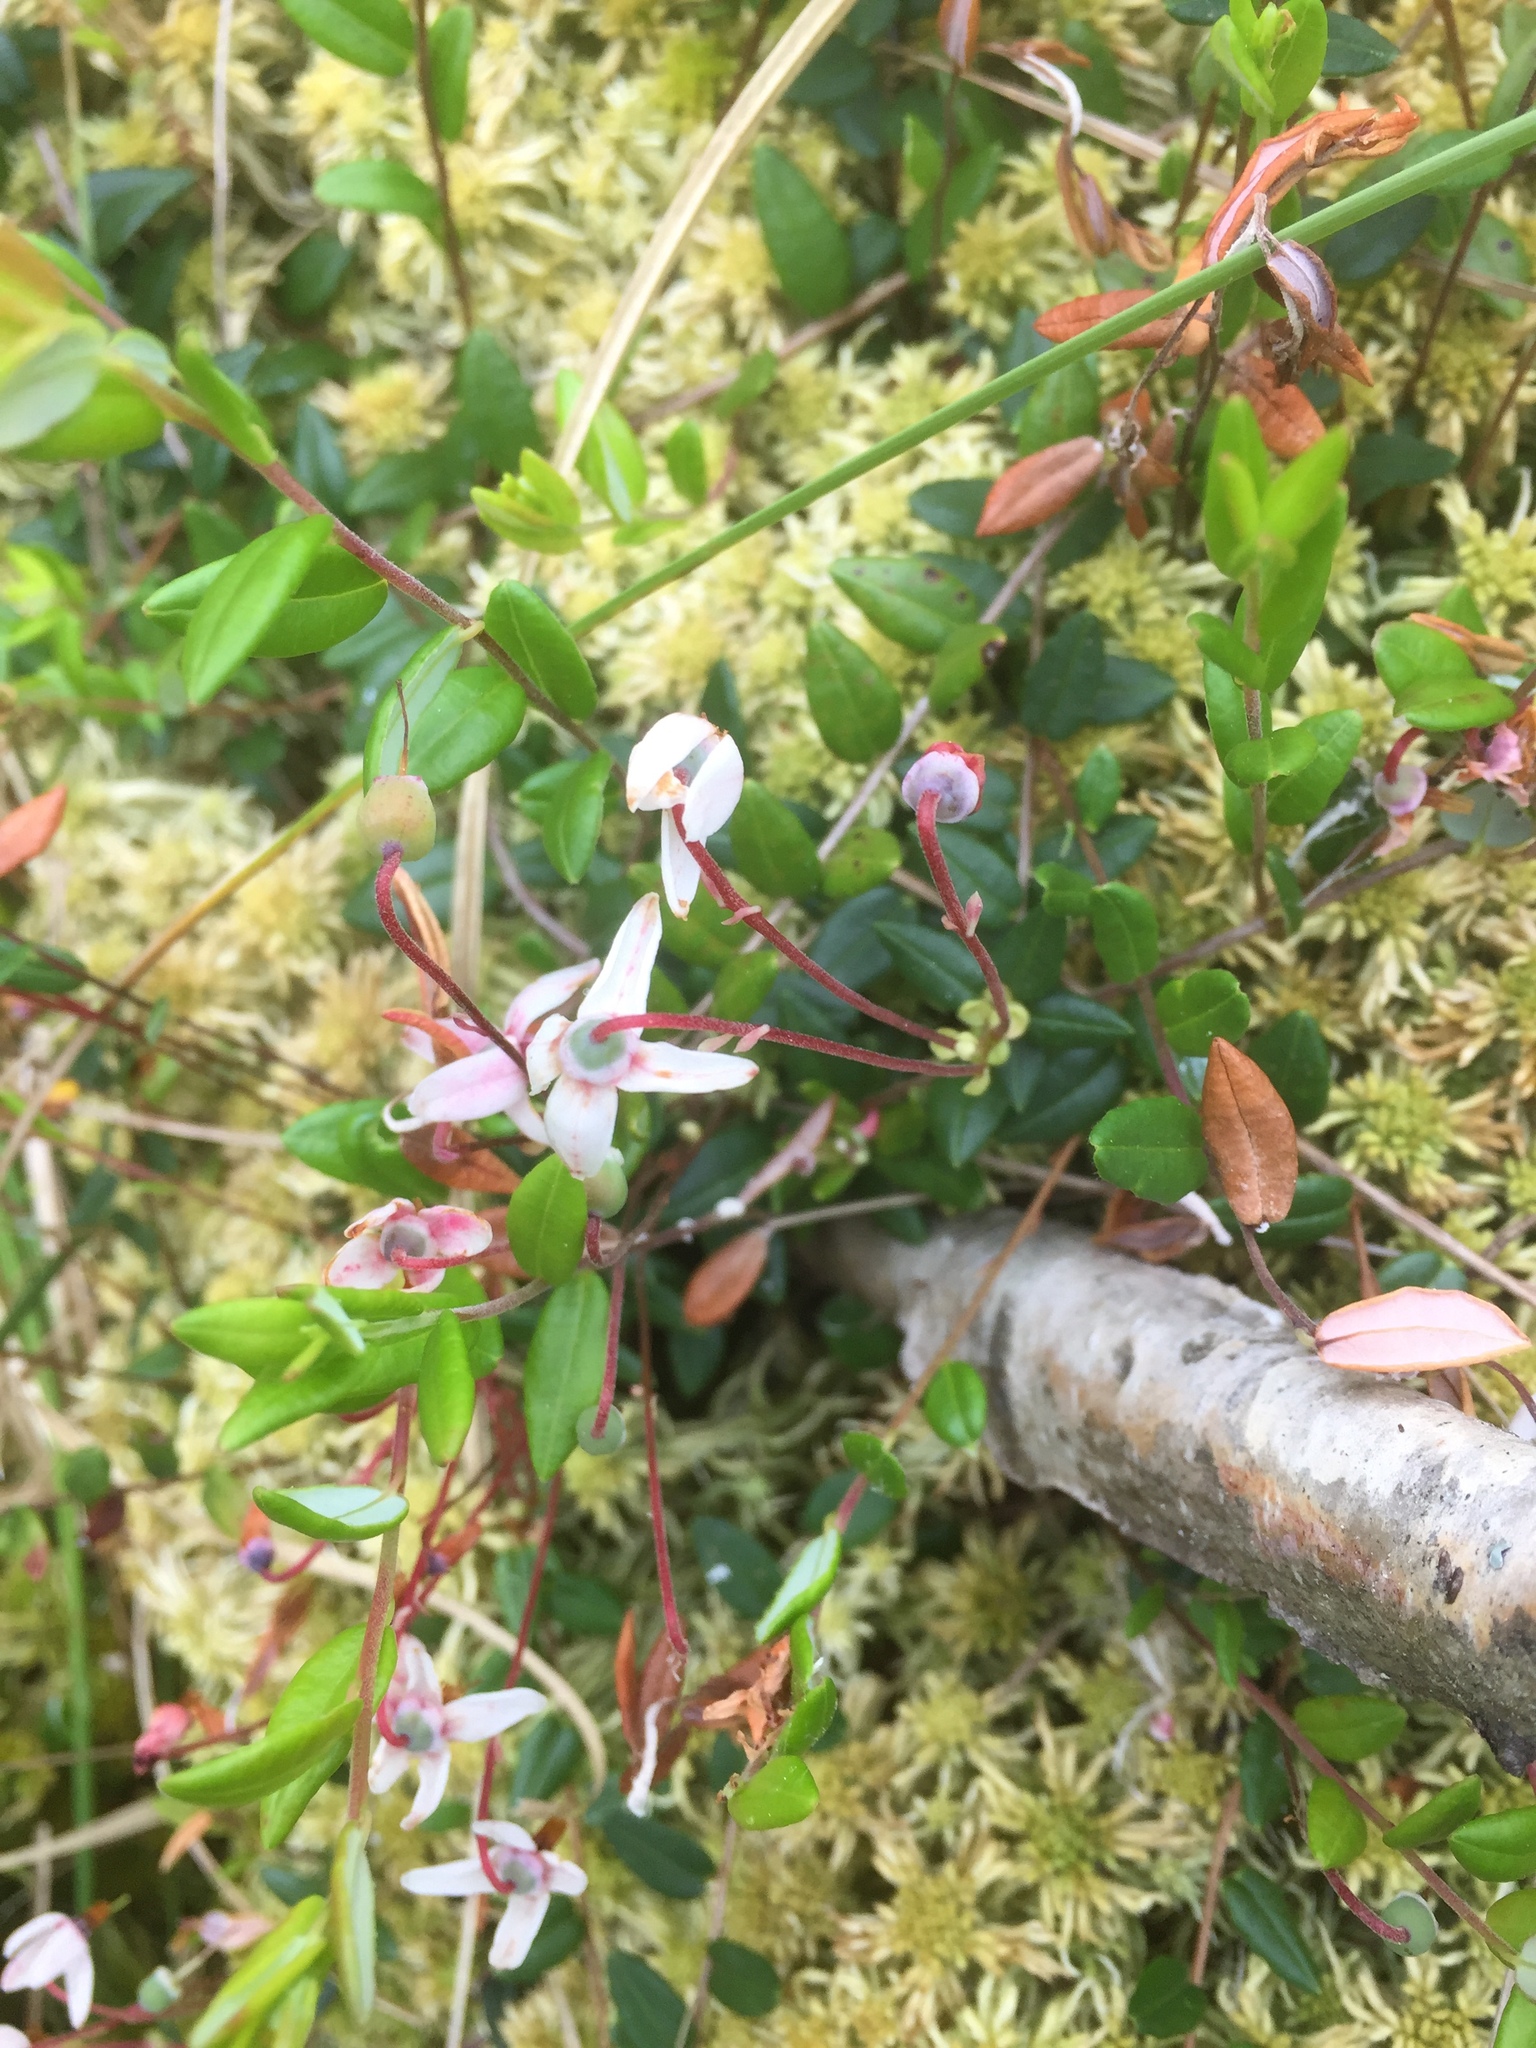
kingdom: Plantae
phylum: Tracheophyta
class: Magnoliopsida
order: Ericales
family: Ericaceae
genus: Vaccinium
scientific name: Vaccinium oxycoccos
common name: Cranberry
